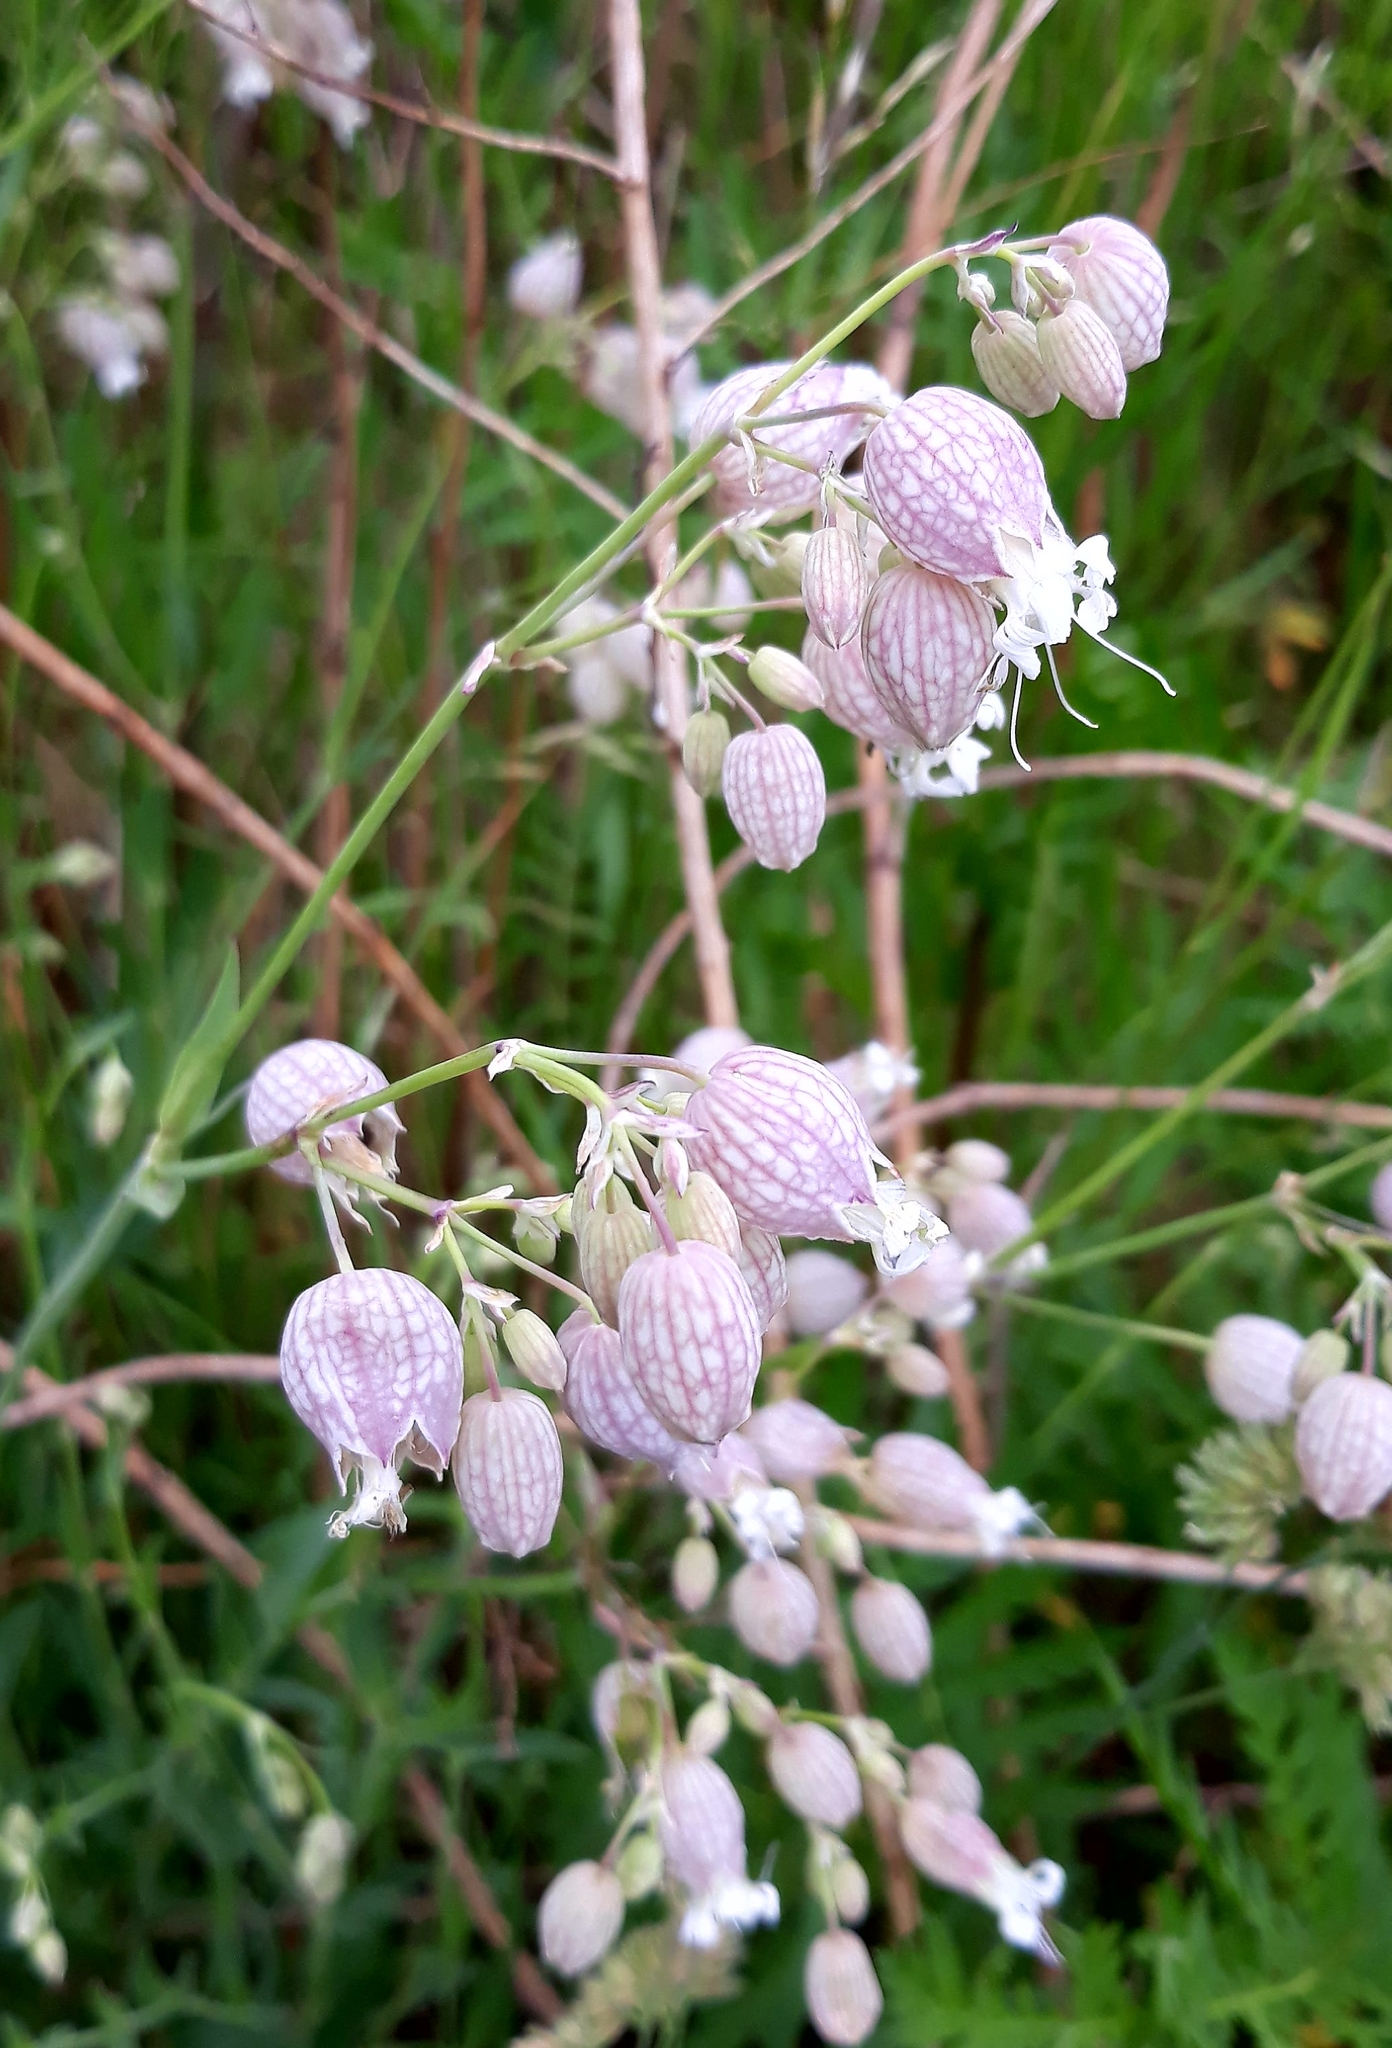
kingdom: Plantae
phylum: Tracheophyta
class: Magnoliopsida
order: Caryophyllales
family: Caryophyllaceae
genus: Silene
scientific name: Silene vulgaris
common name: Bladder campion
